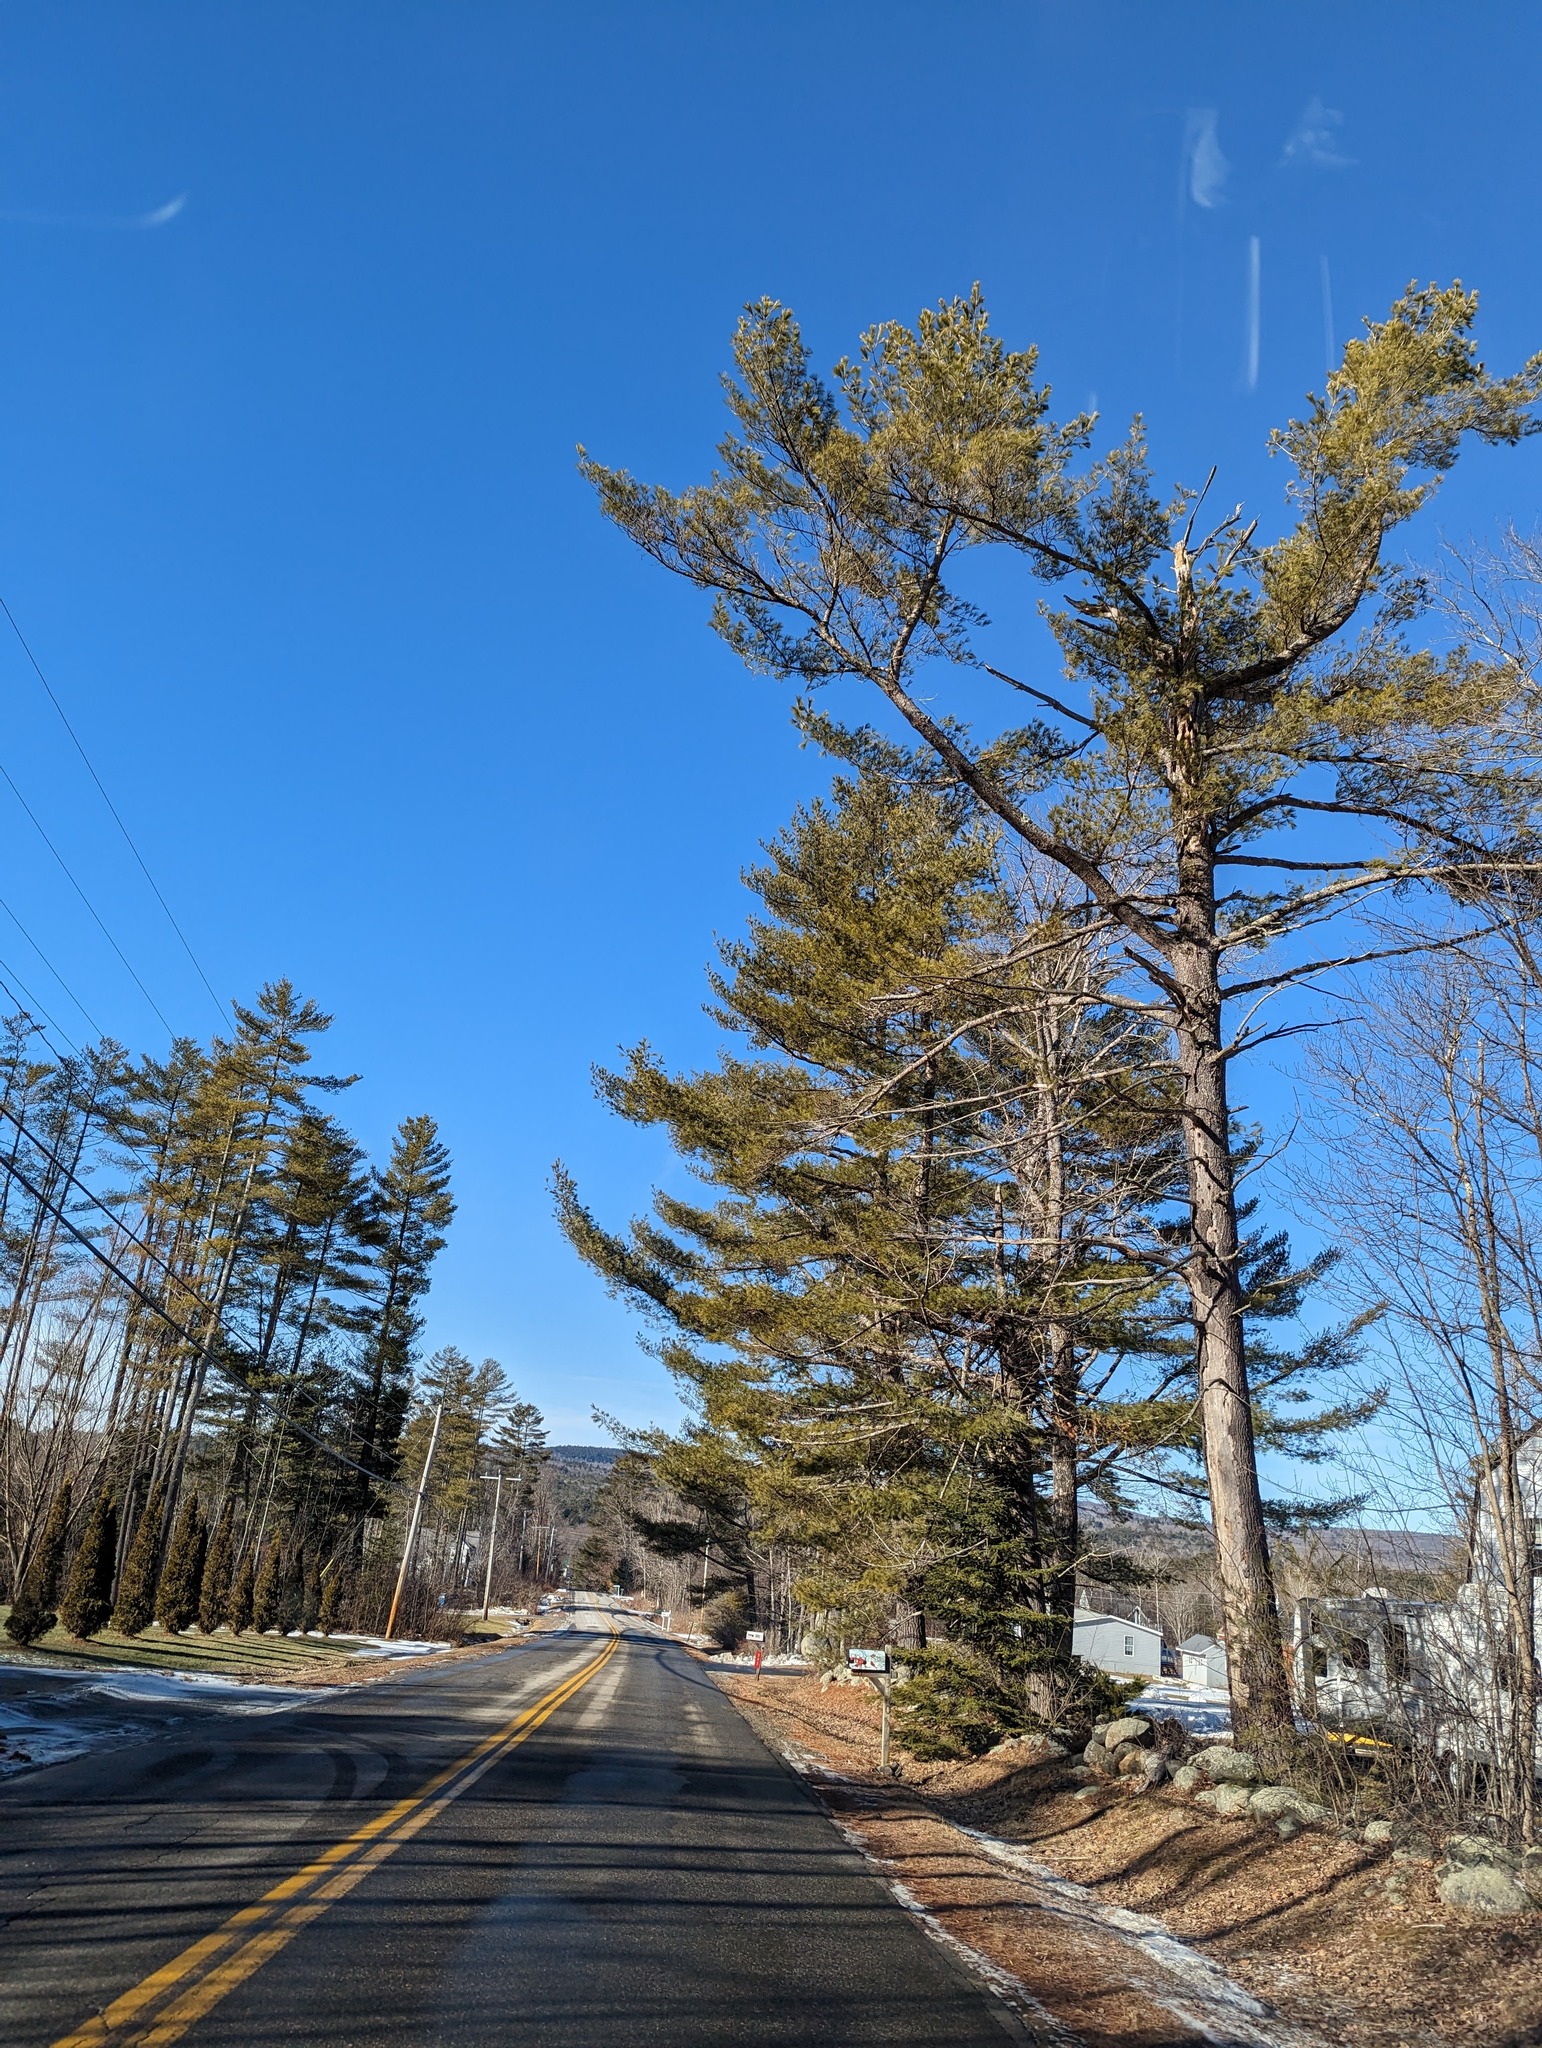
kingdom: Plantae
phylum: Tracheophyta
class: Pinopsida
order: Pinales
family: Pinaceae
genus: Pinus
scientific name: Pinus strobus
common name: Weymouth pine
